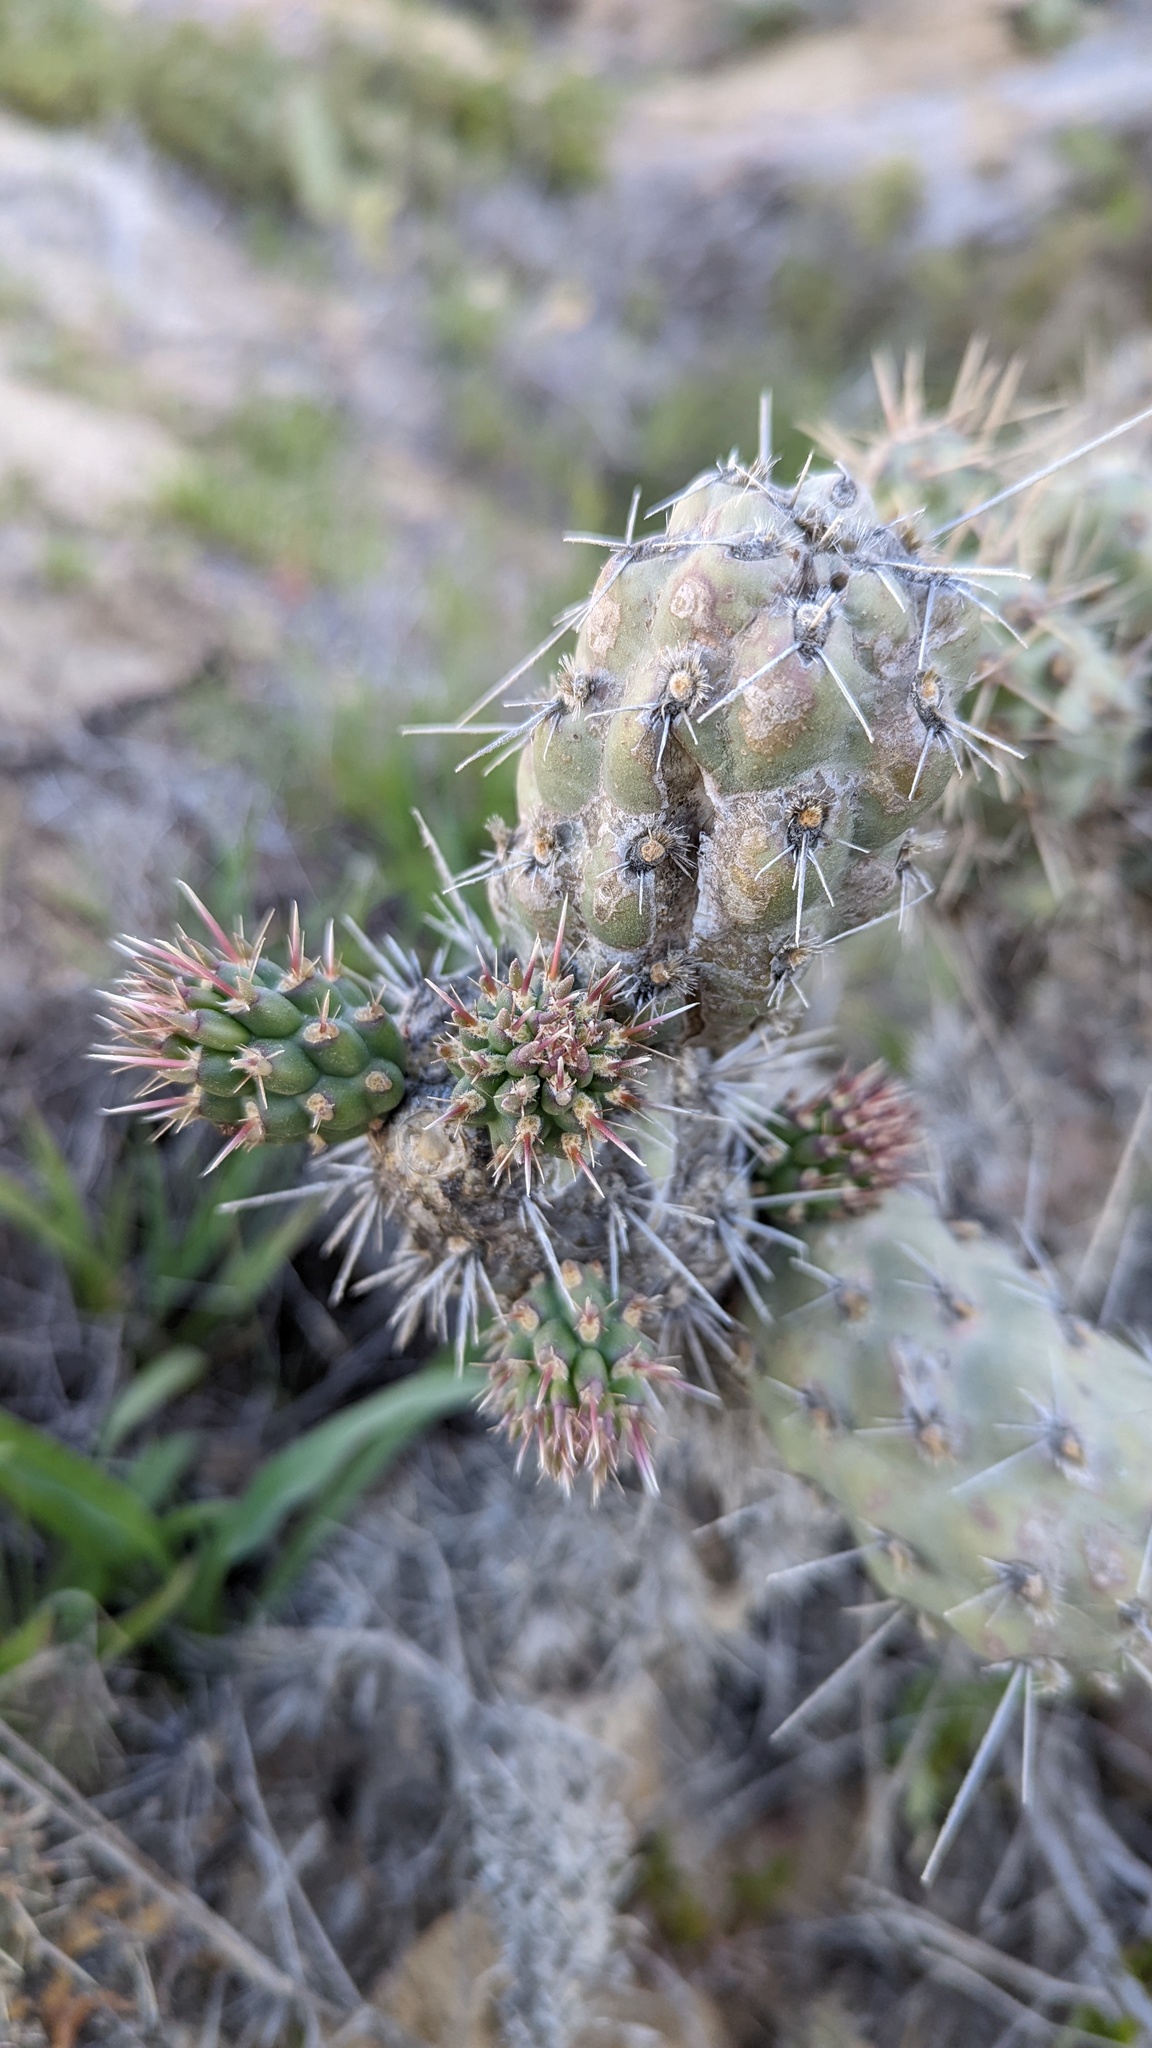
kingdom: Plantae
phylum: Tracheophyta
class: Magnoliopsida
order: Caryophyllales
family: Cactaceae
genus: Cylindropuntia
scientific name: Cylindropuntia prolifera
